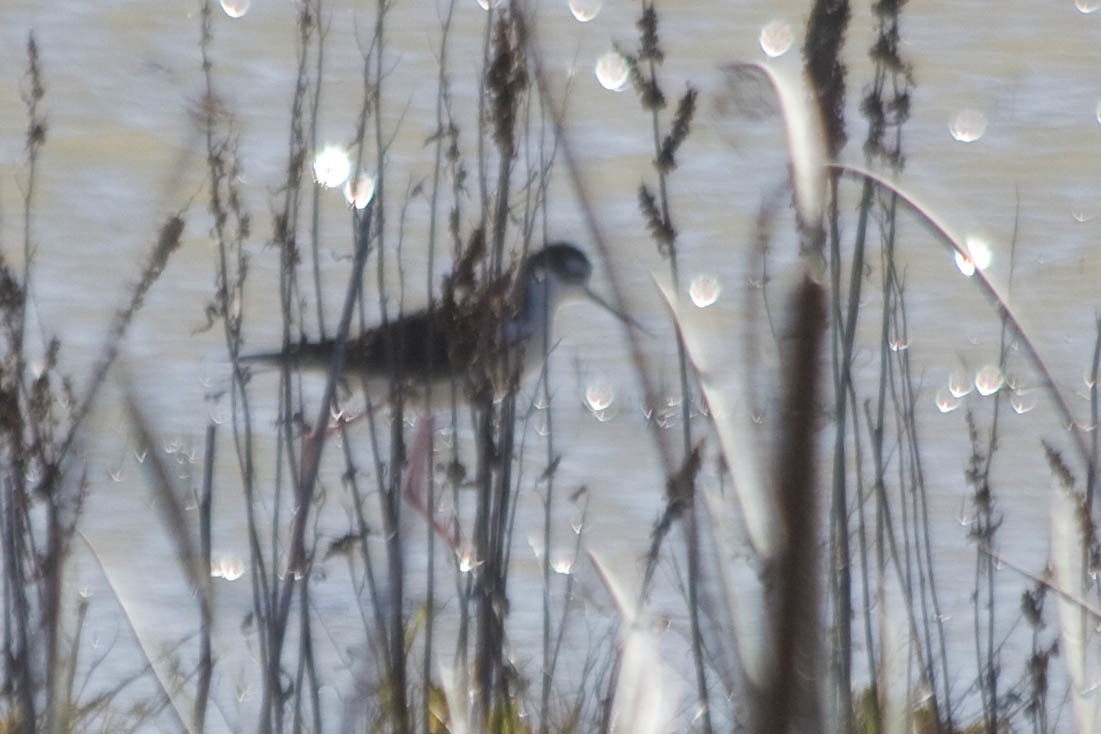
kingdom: Animalia
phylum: Chordata
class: Aves
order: Charadriiformes
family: Recurvirostridae
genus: Himantopus
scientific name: Himantopus mexicanus
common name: Black-necked stilt
